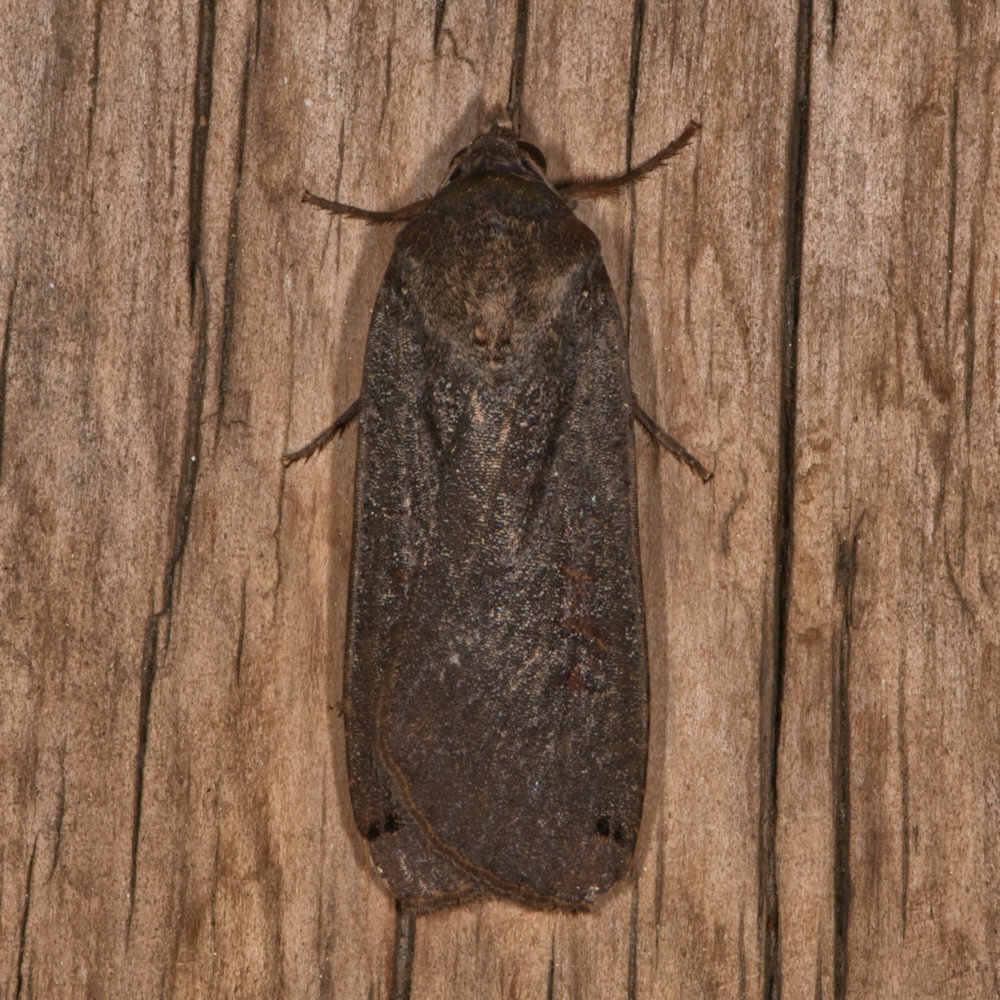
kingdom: Animalia
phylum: Arthropoda
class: Insecta
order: Lepidoptera
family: Noctuidae
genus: Noctua
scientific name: Noctua pronuba
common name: Large yellow underwing
